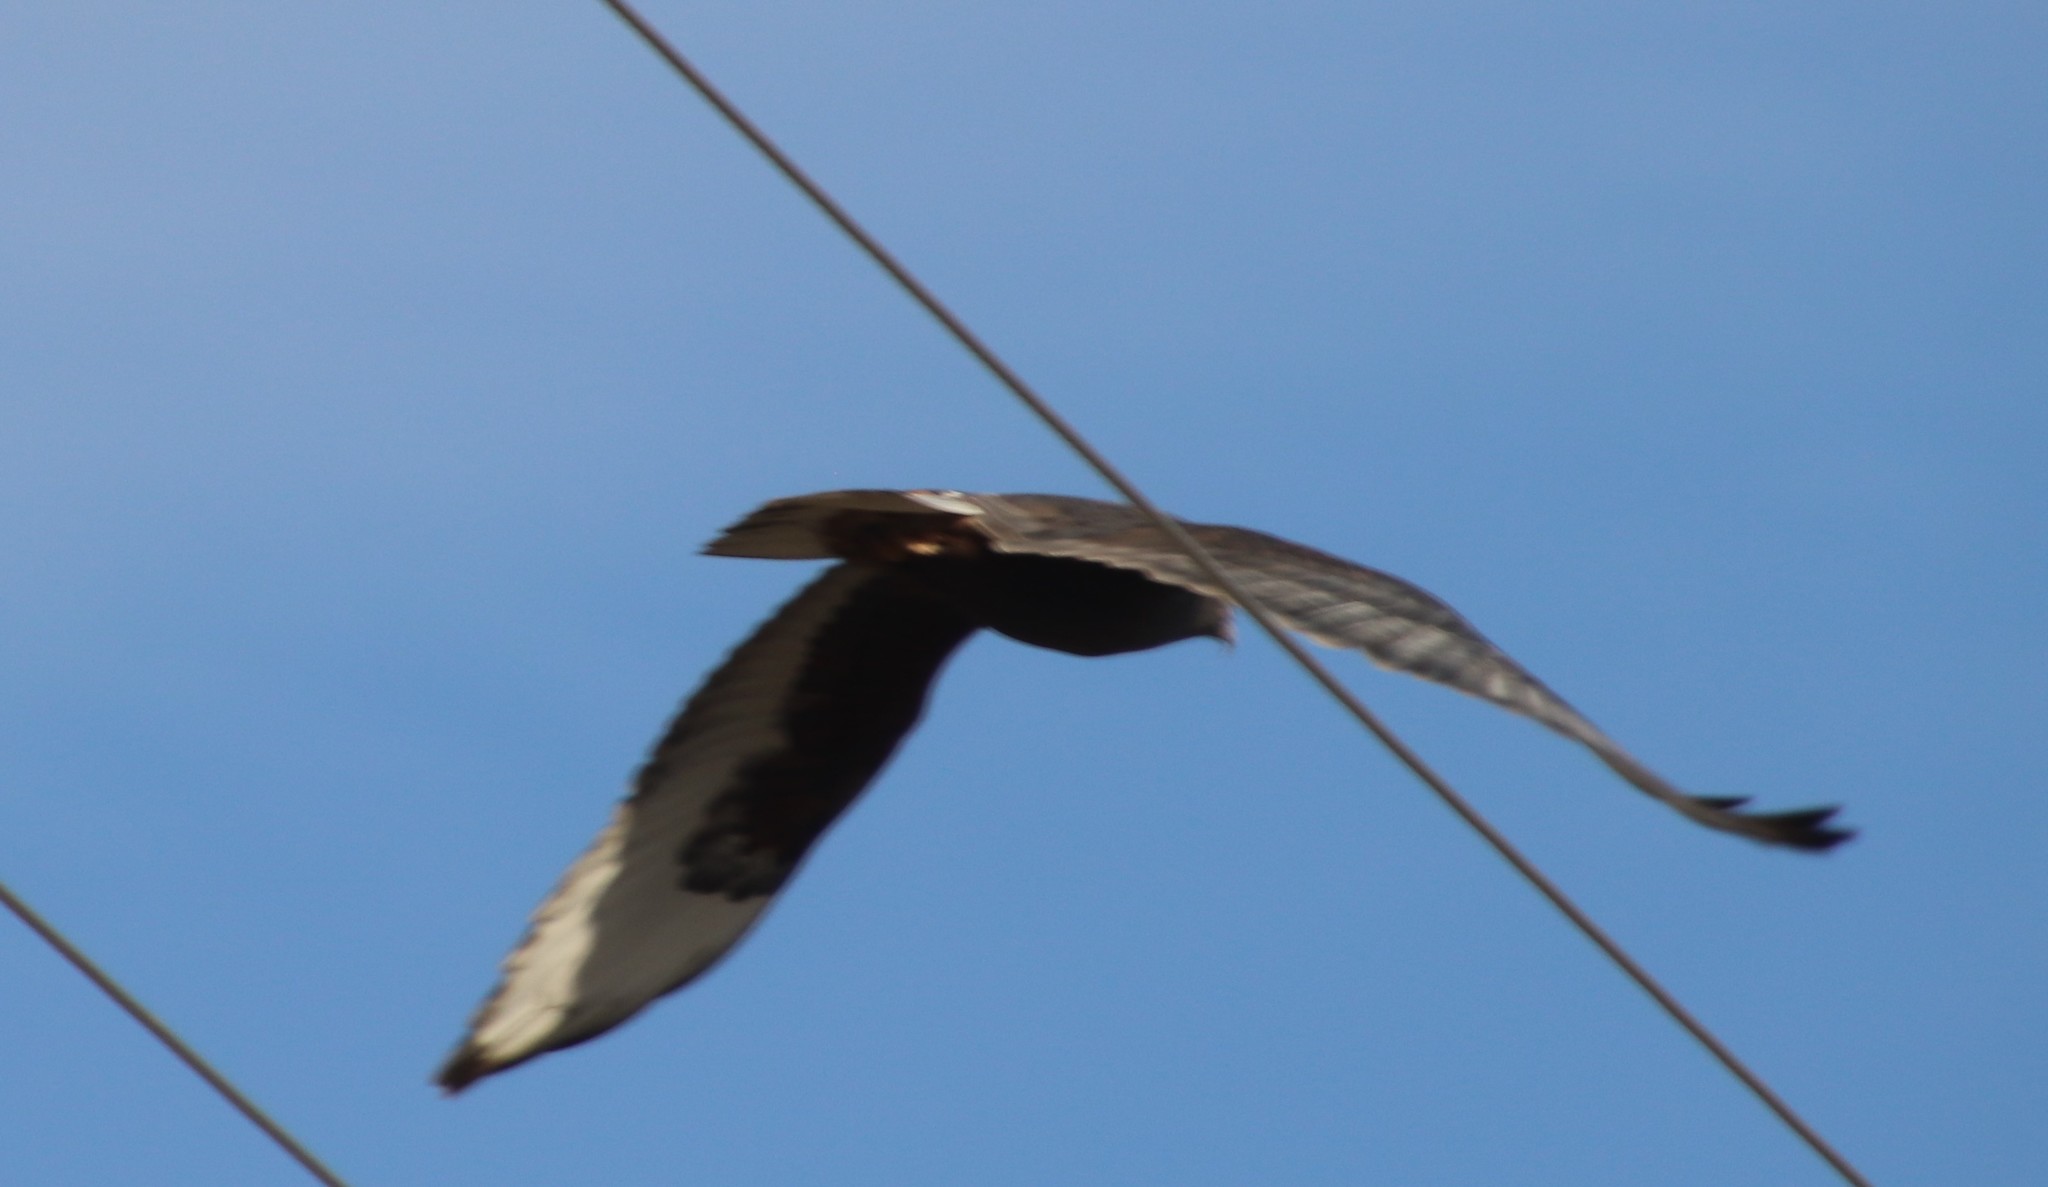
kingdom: Animalia
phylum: Chordata
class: Aves
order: Accipitriformes
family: Accipitridae
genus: Buteo
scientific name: Buteo regalis
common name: Ferruginous hawk
